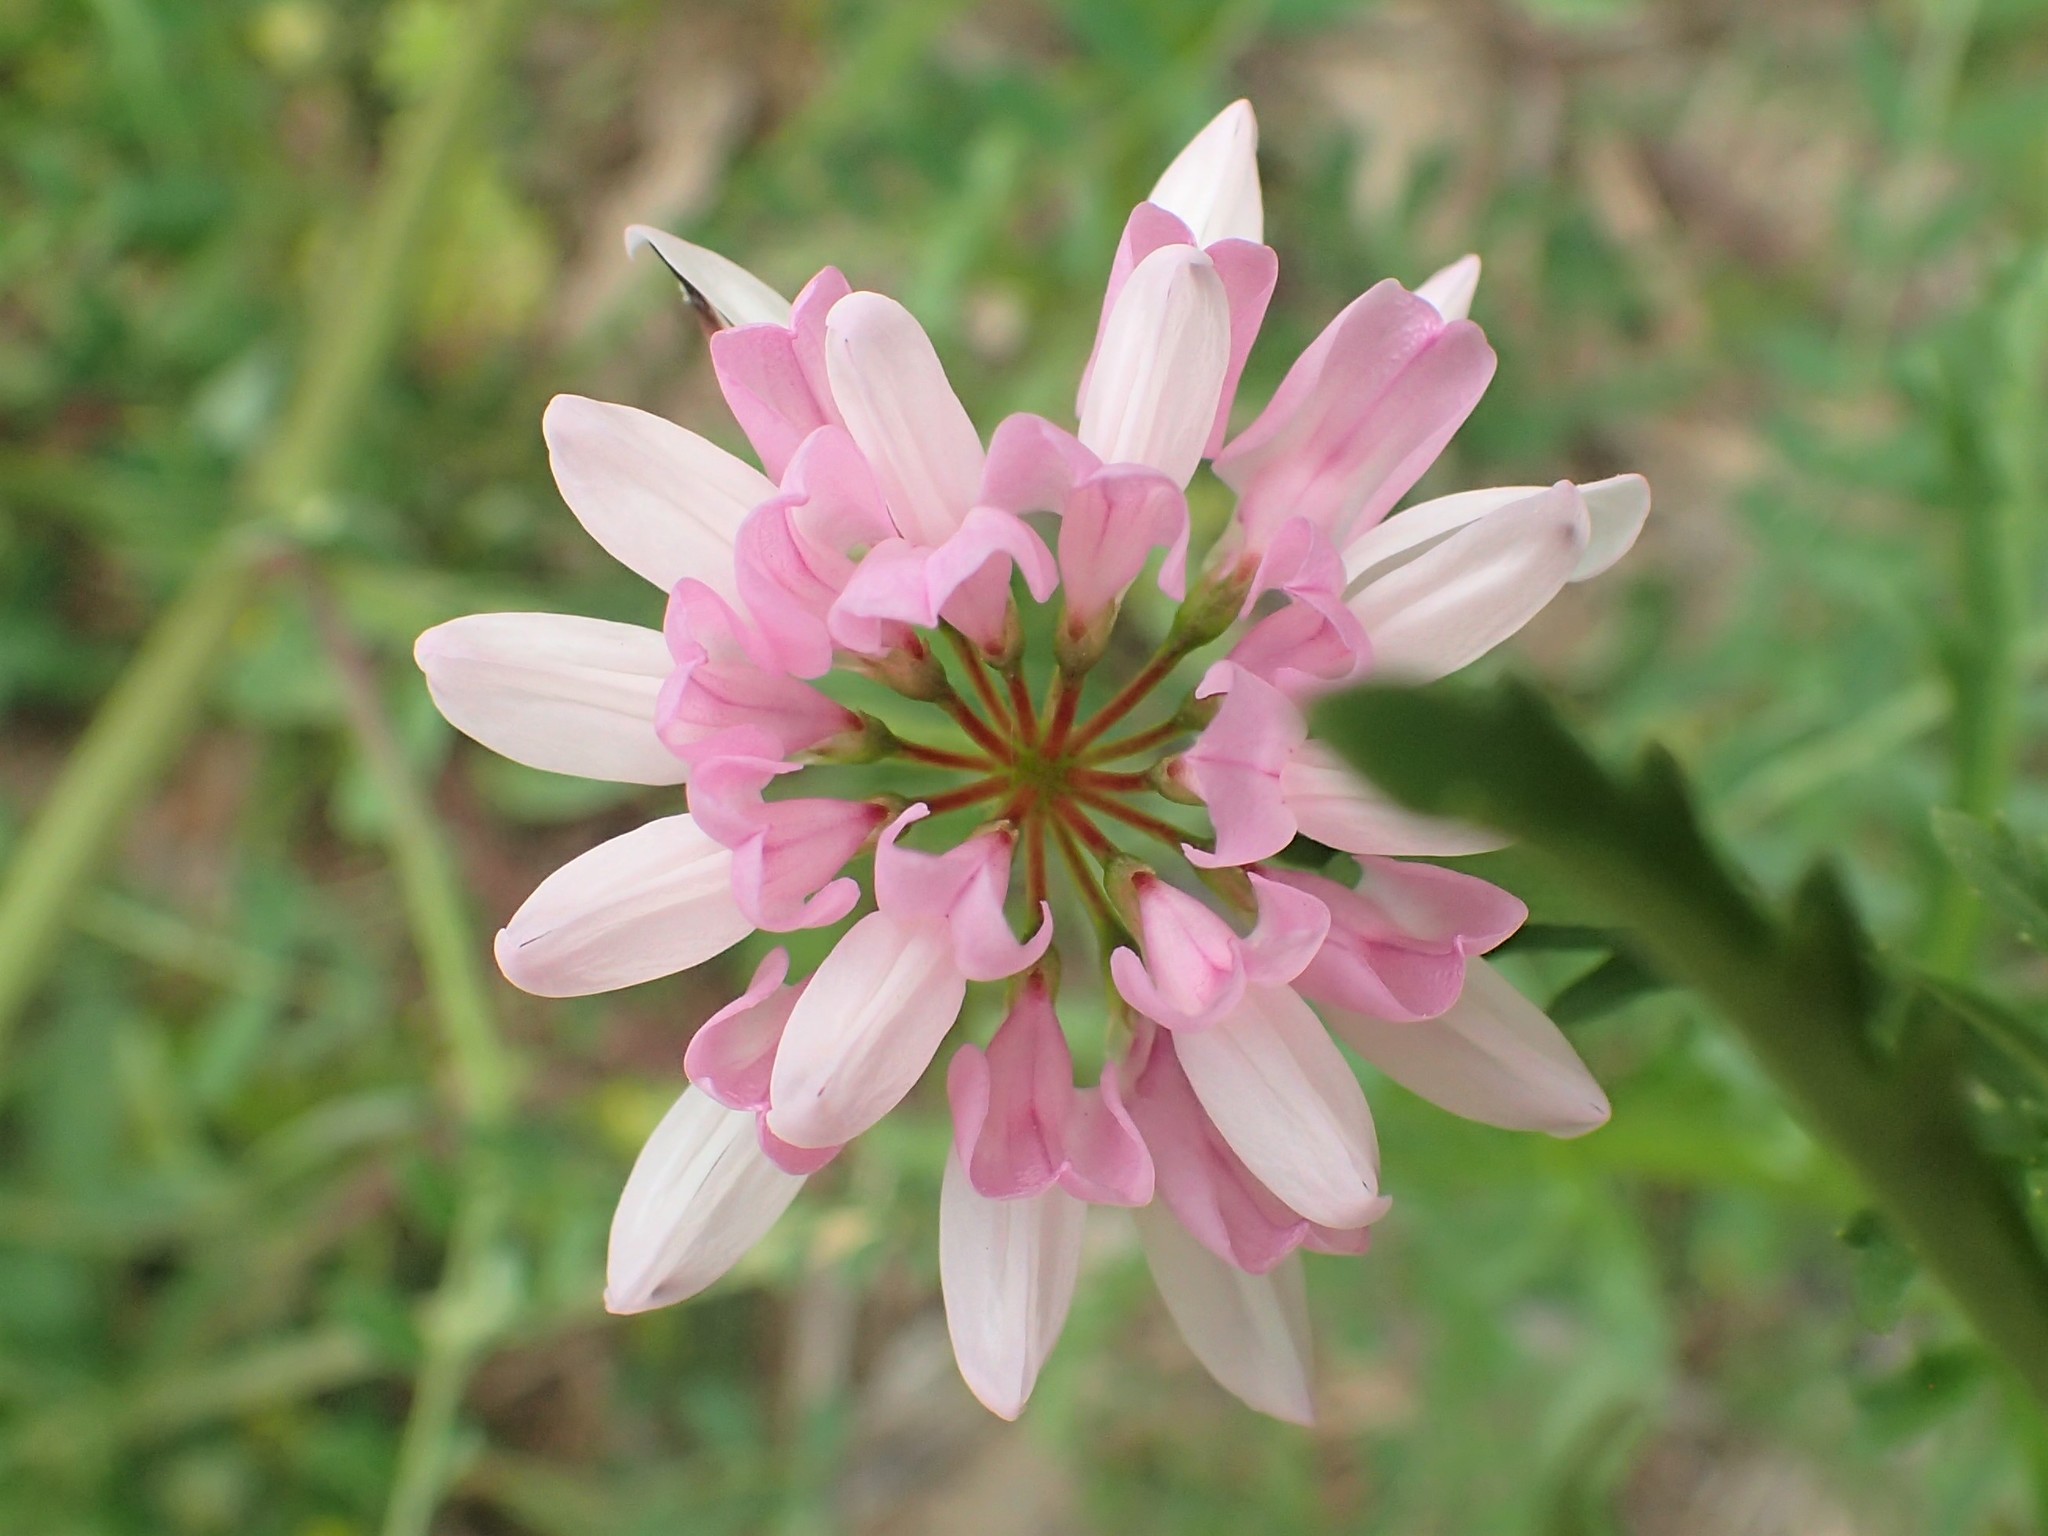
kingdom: Plantae
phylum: Tracheophyta
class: Magnoliopsida
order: Fabales
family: Fabaceae
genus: Coronilla
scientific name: Coronilla varia
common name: Crownvetch
